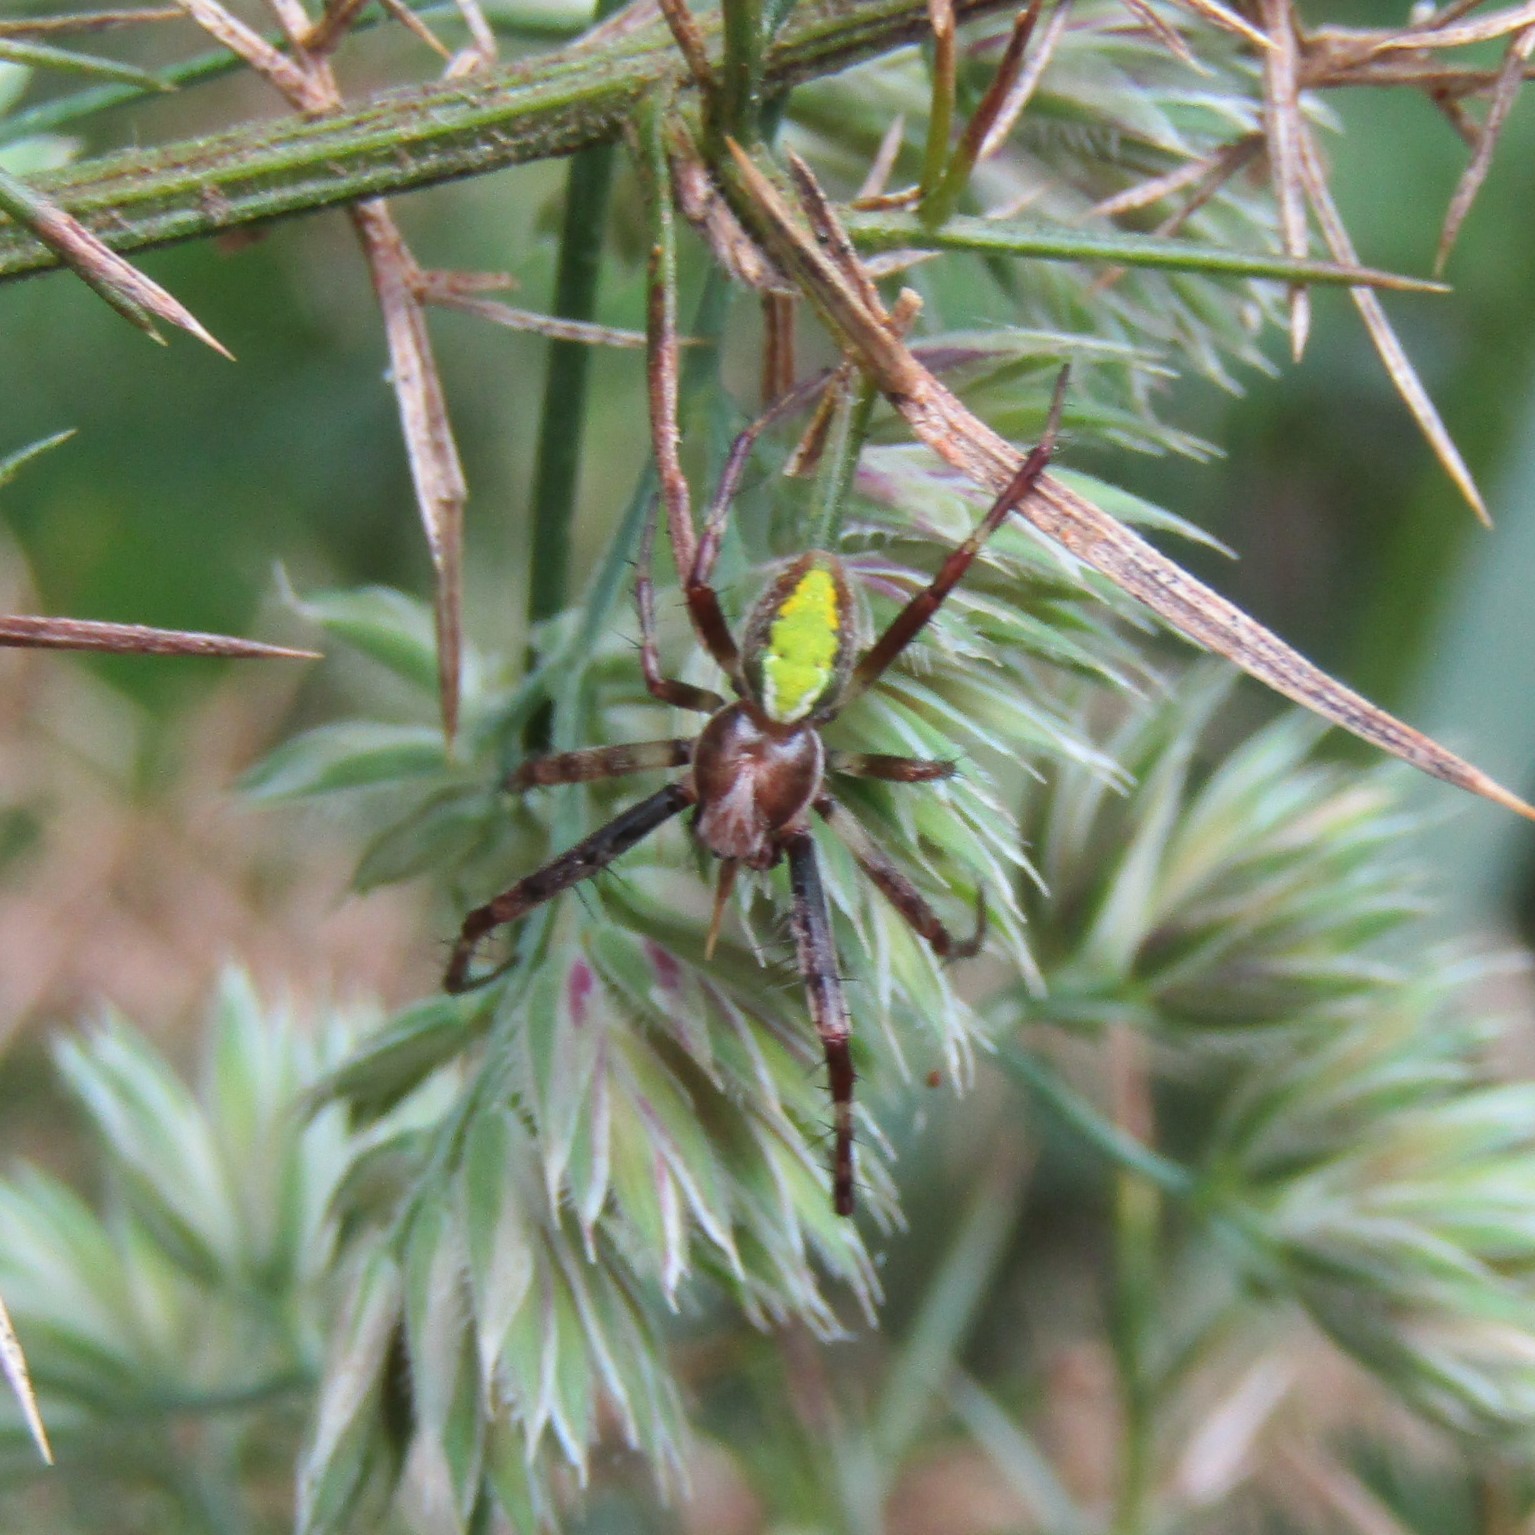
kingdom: Animalia
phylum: Arthropoda
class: Arachnida
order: Araneae
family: Araneidae
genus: Novaranea
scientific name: Novaranea queribunda
